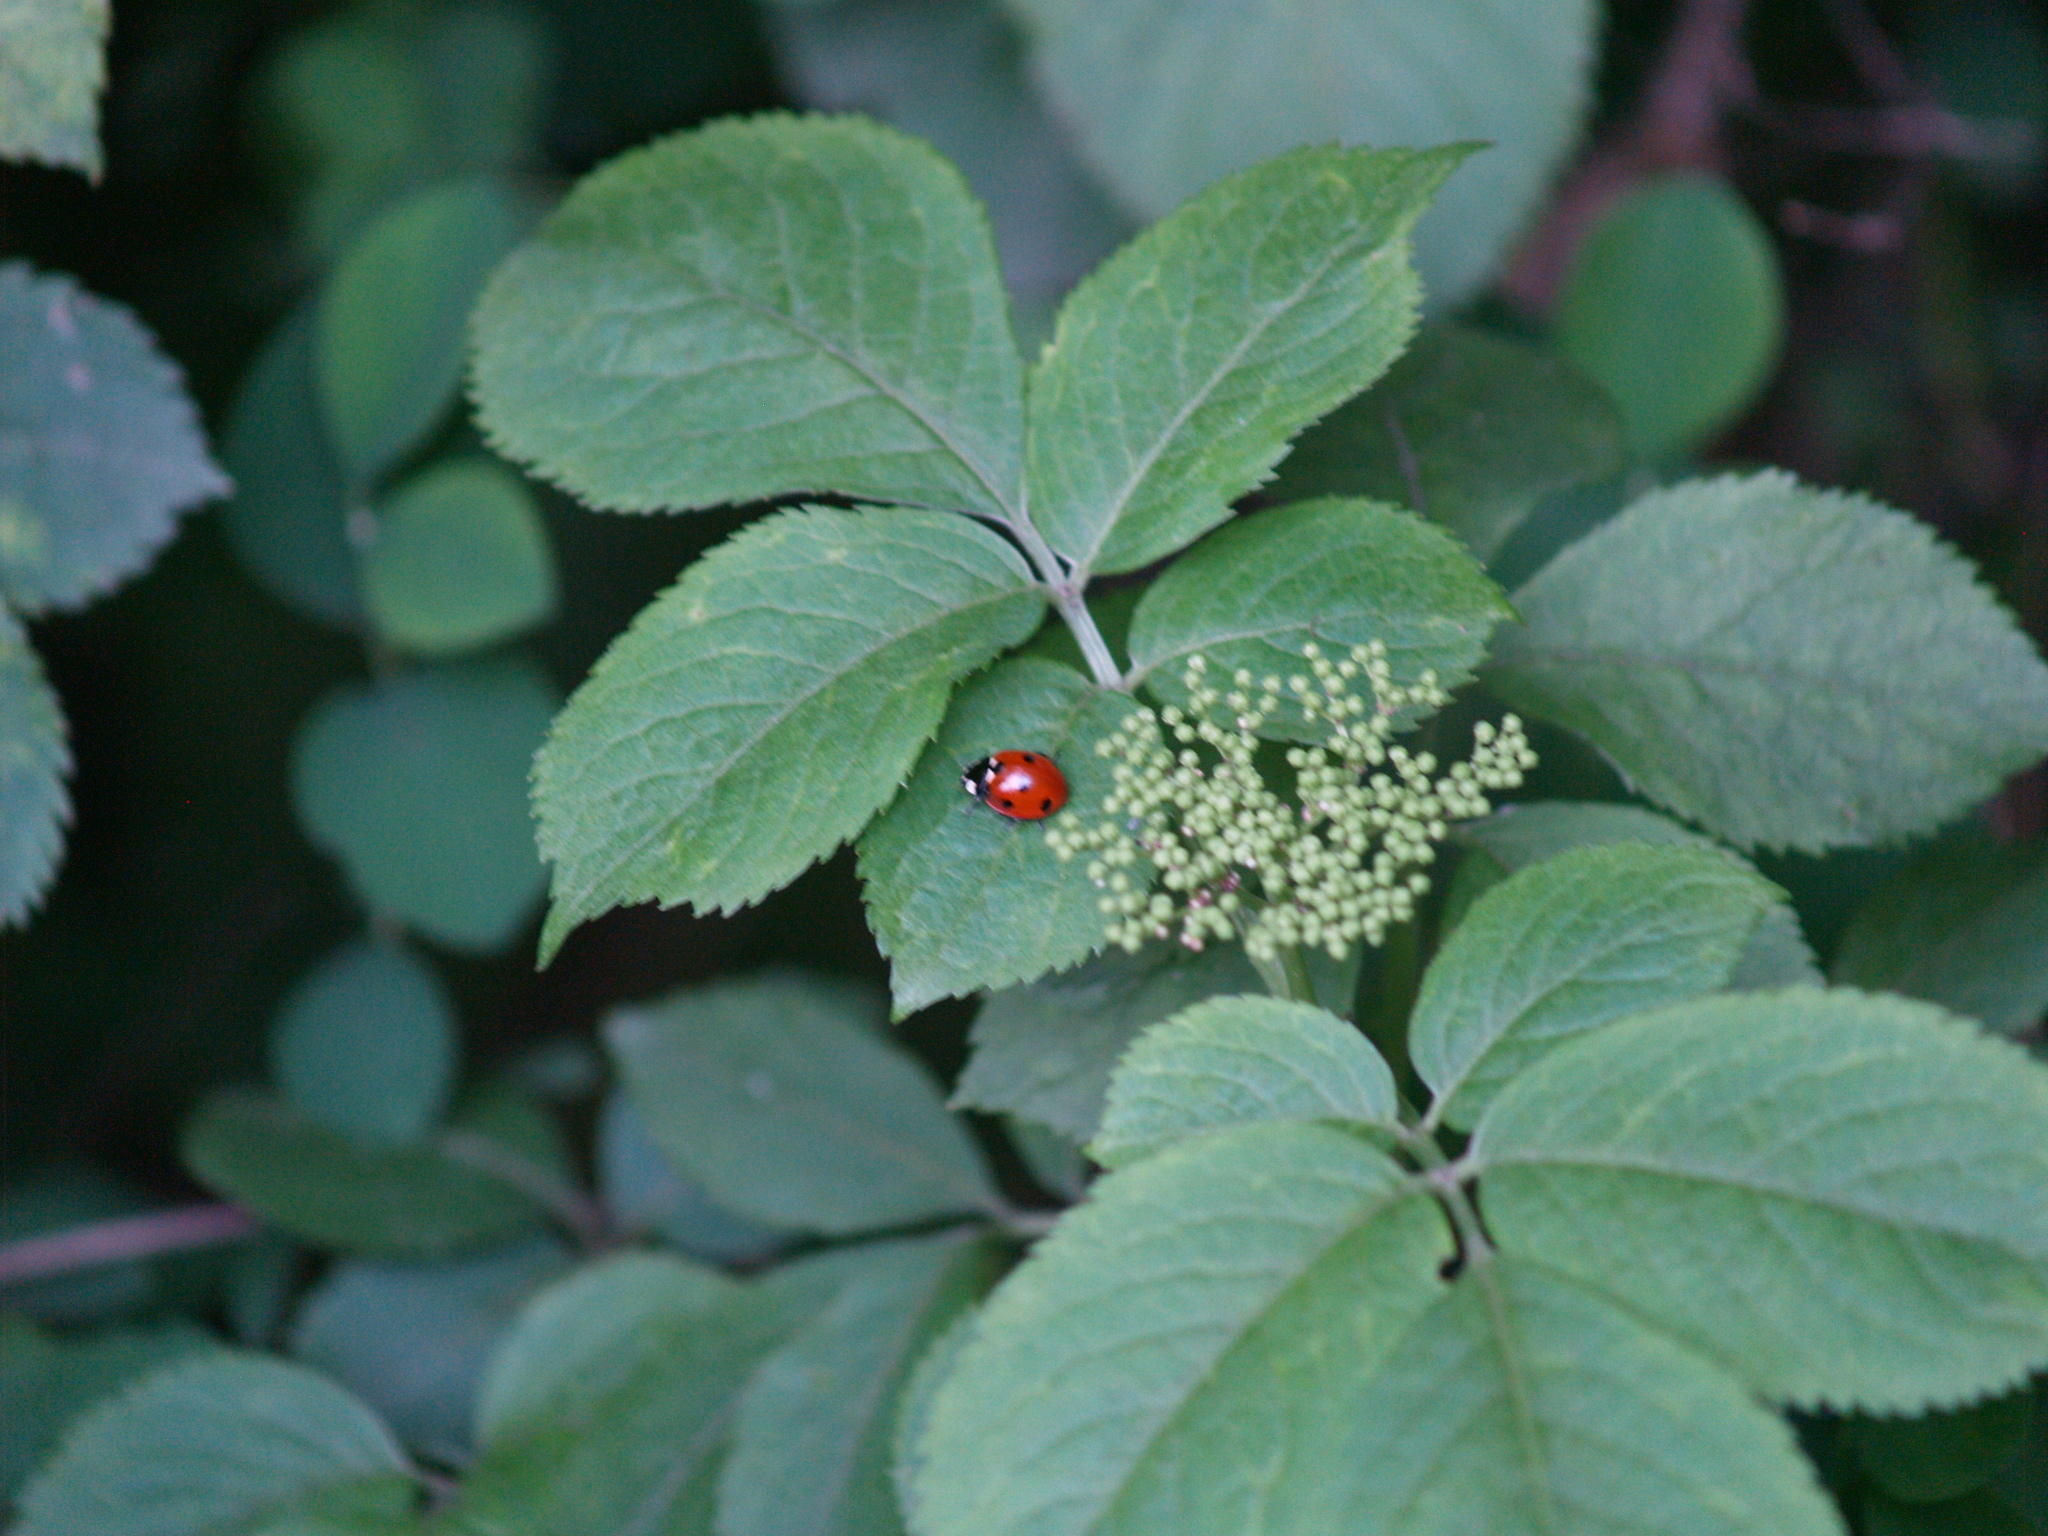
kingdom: Animalia
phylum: Arthropoda
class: Insecta
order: Coleoptera
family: Coccinellidae
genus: Coccinella
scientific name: Coccinella septempunctata
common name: Sevenspotted lady beetle
